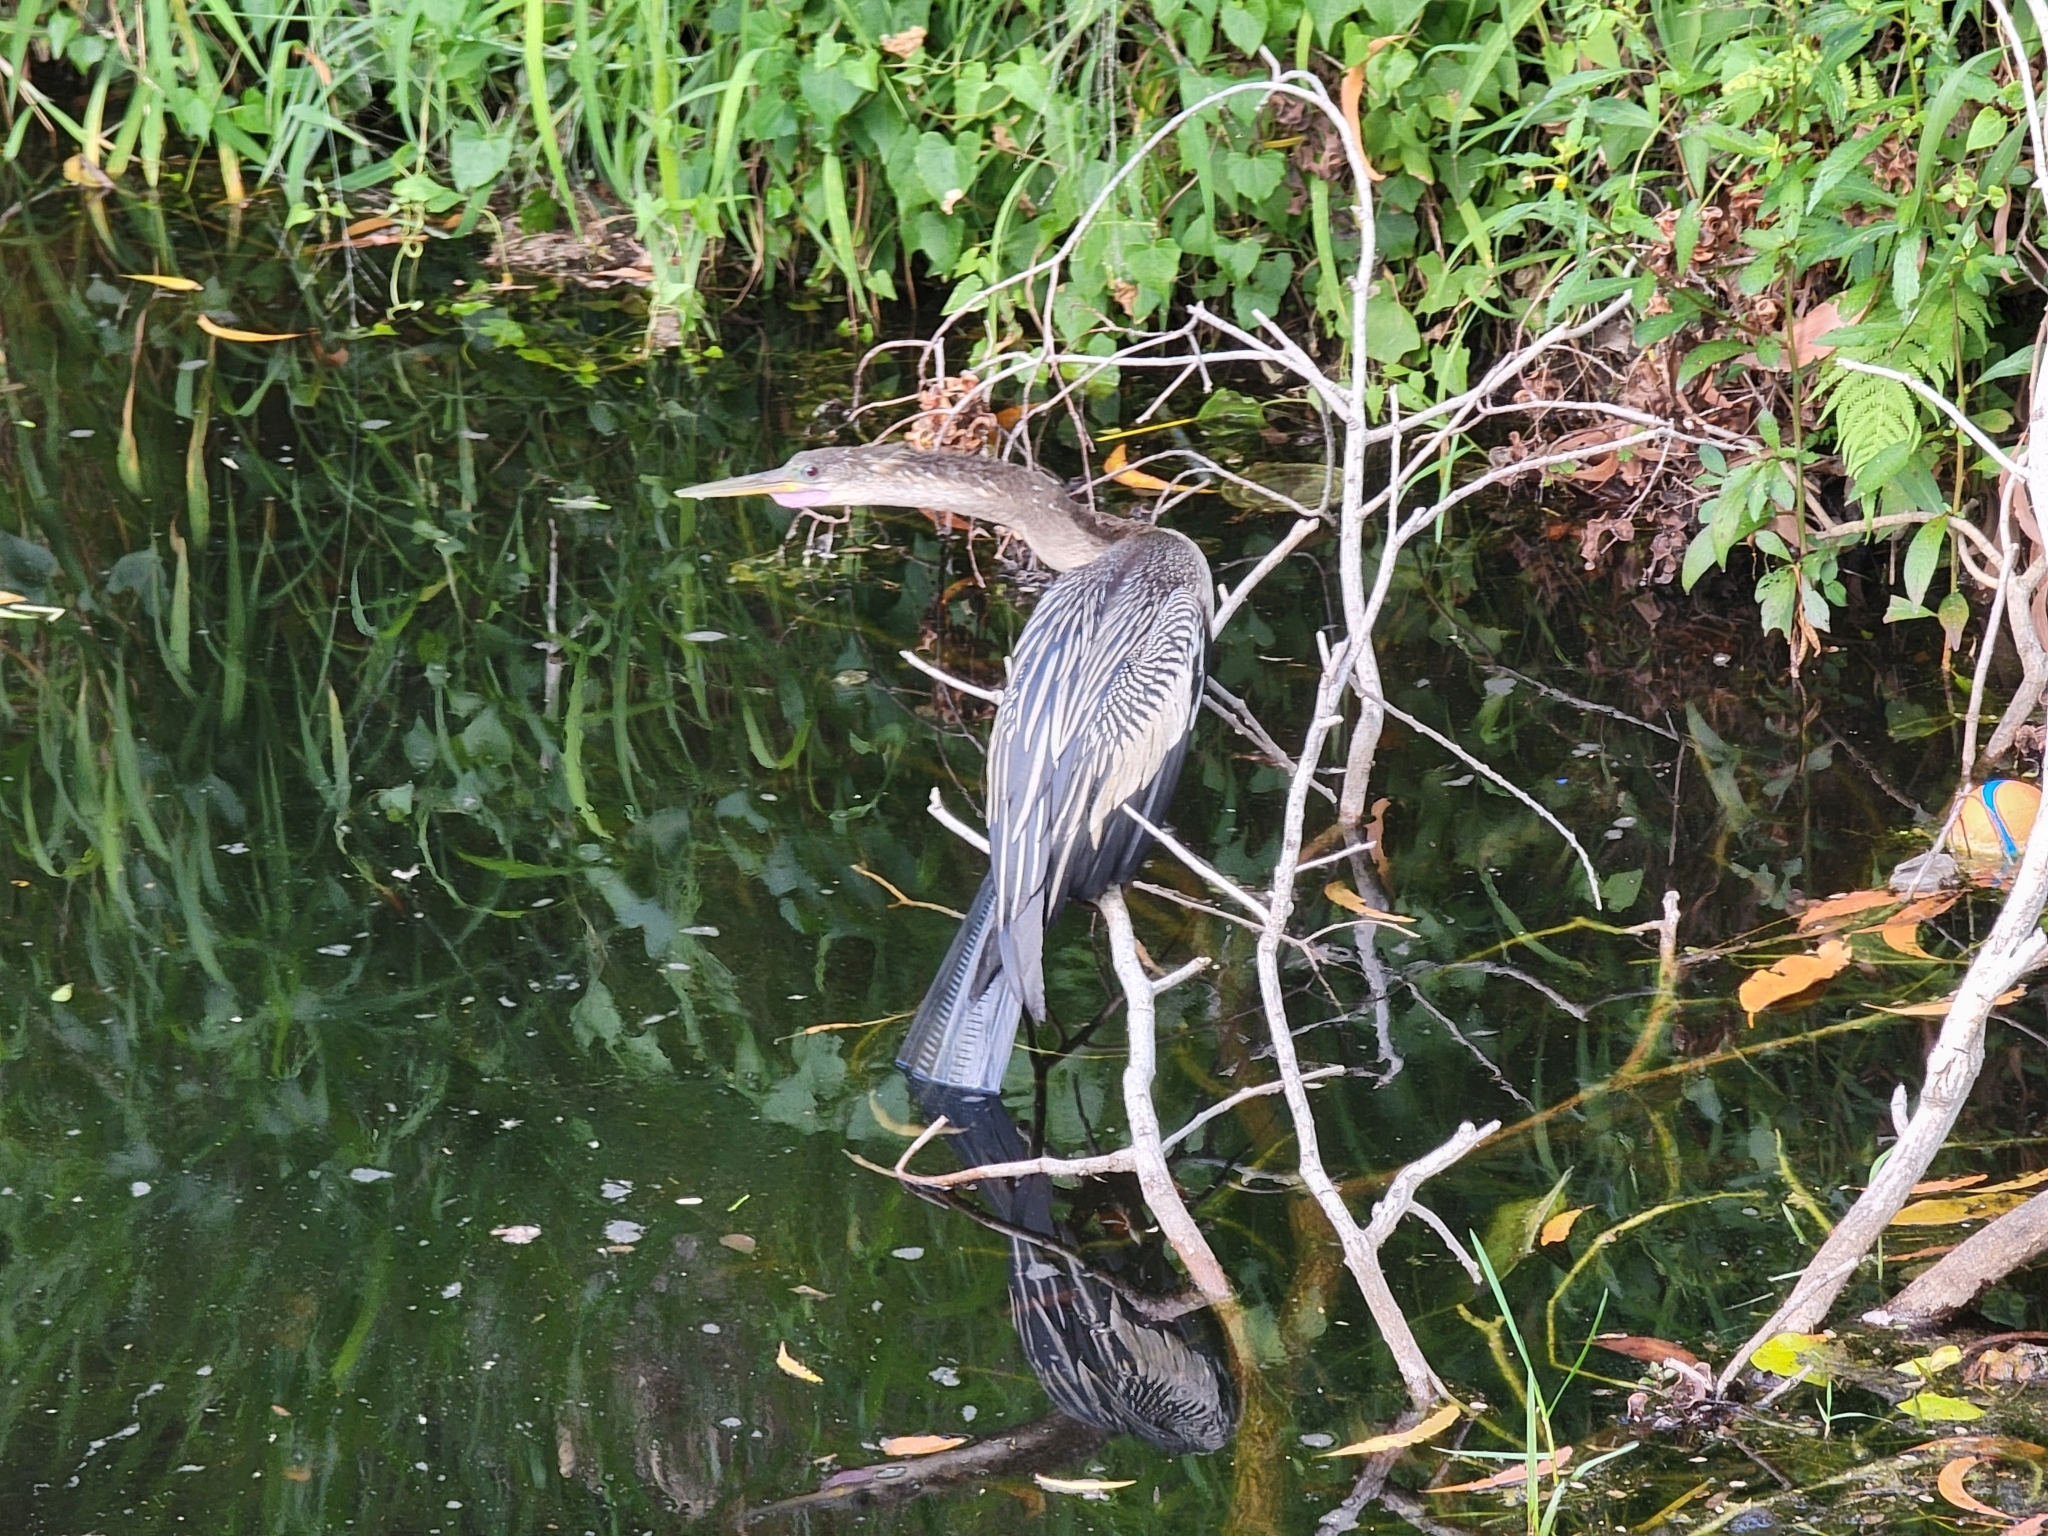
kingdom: Animalia
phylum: Chordata
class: Aves
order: Suliformes
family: Anhingidae
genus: Anhinga
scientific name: Anhinga anhinga
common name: Anhinga
